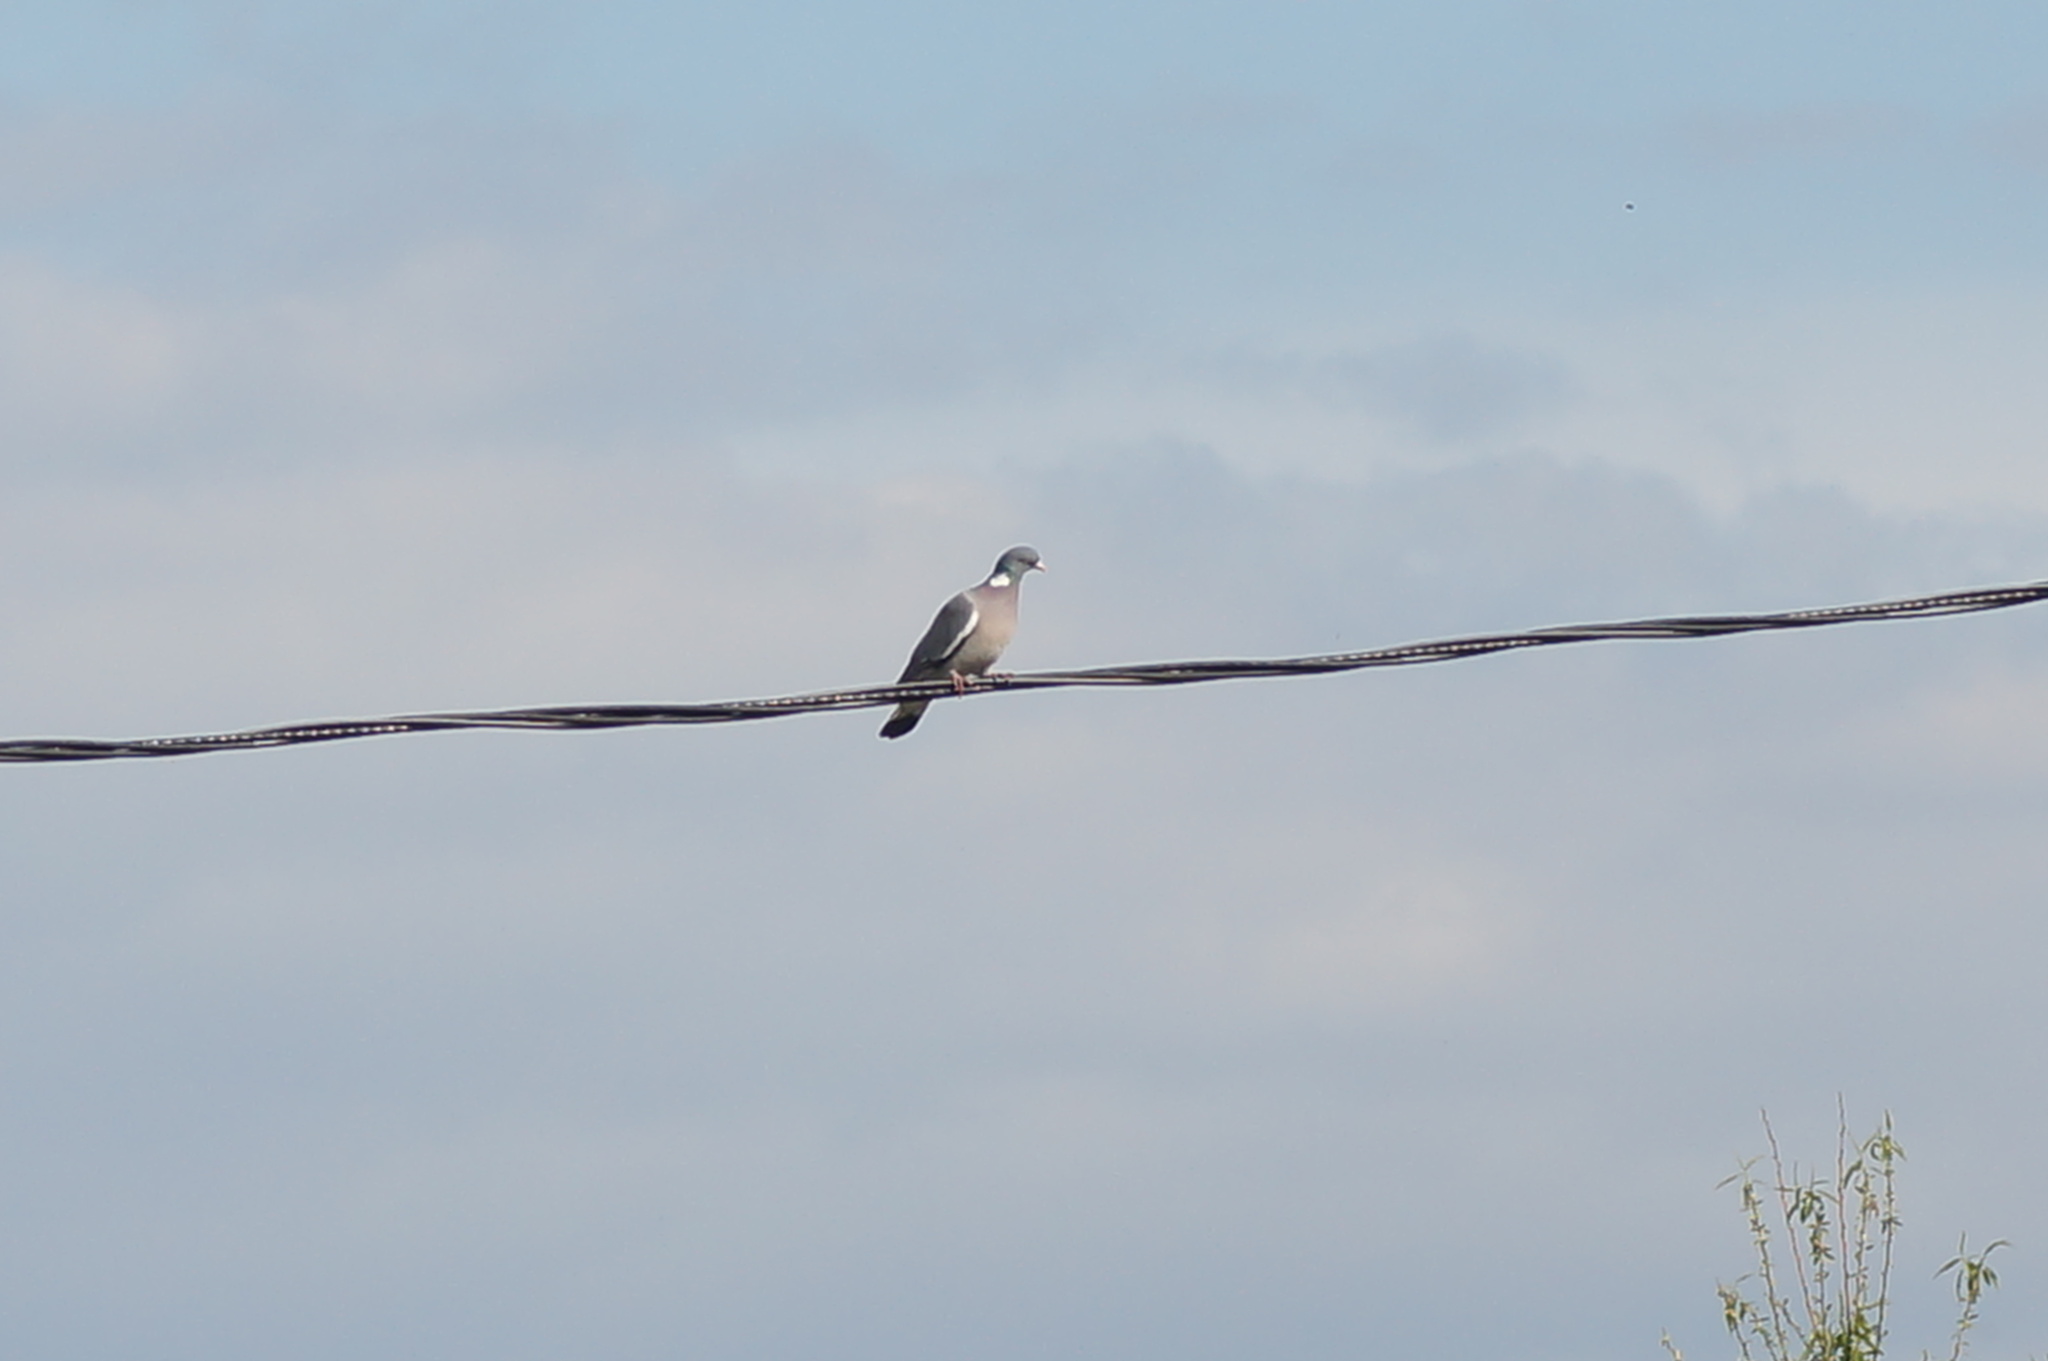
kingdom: Animalia
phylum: Chordata
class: Aves
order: Columbiformes
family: Columbidae
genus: Columba
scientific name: Columba palumbus
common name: Common wood pigeon
